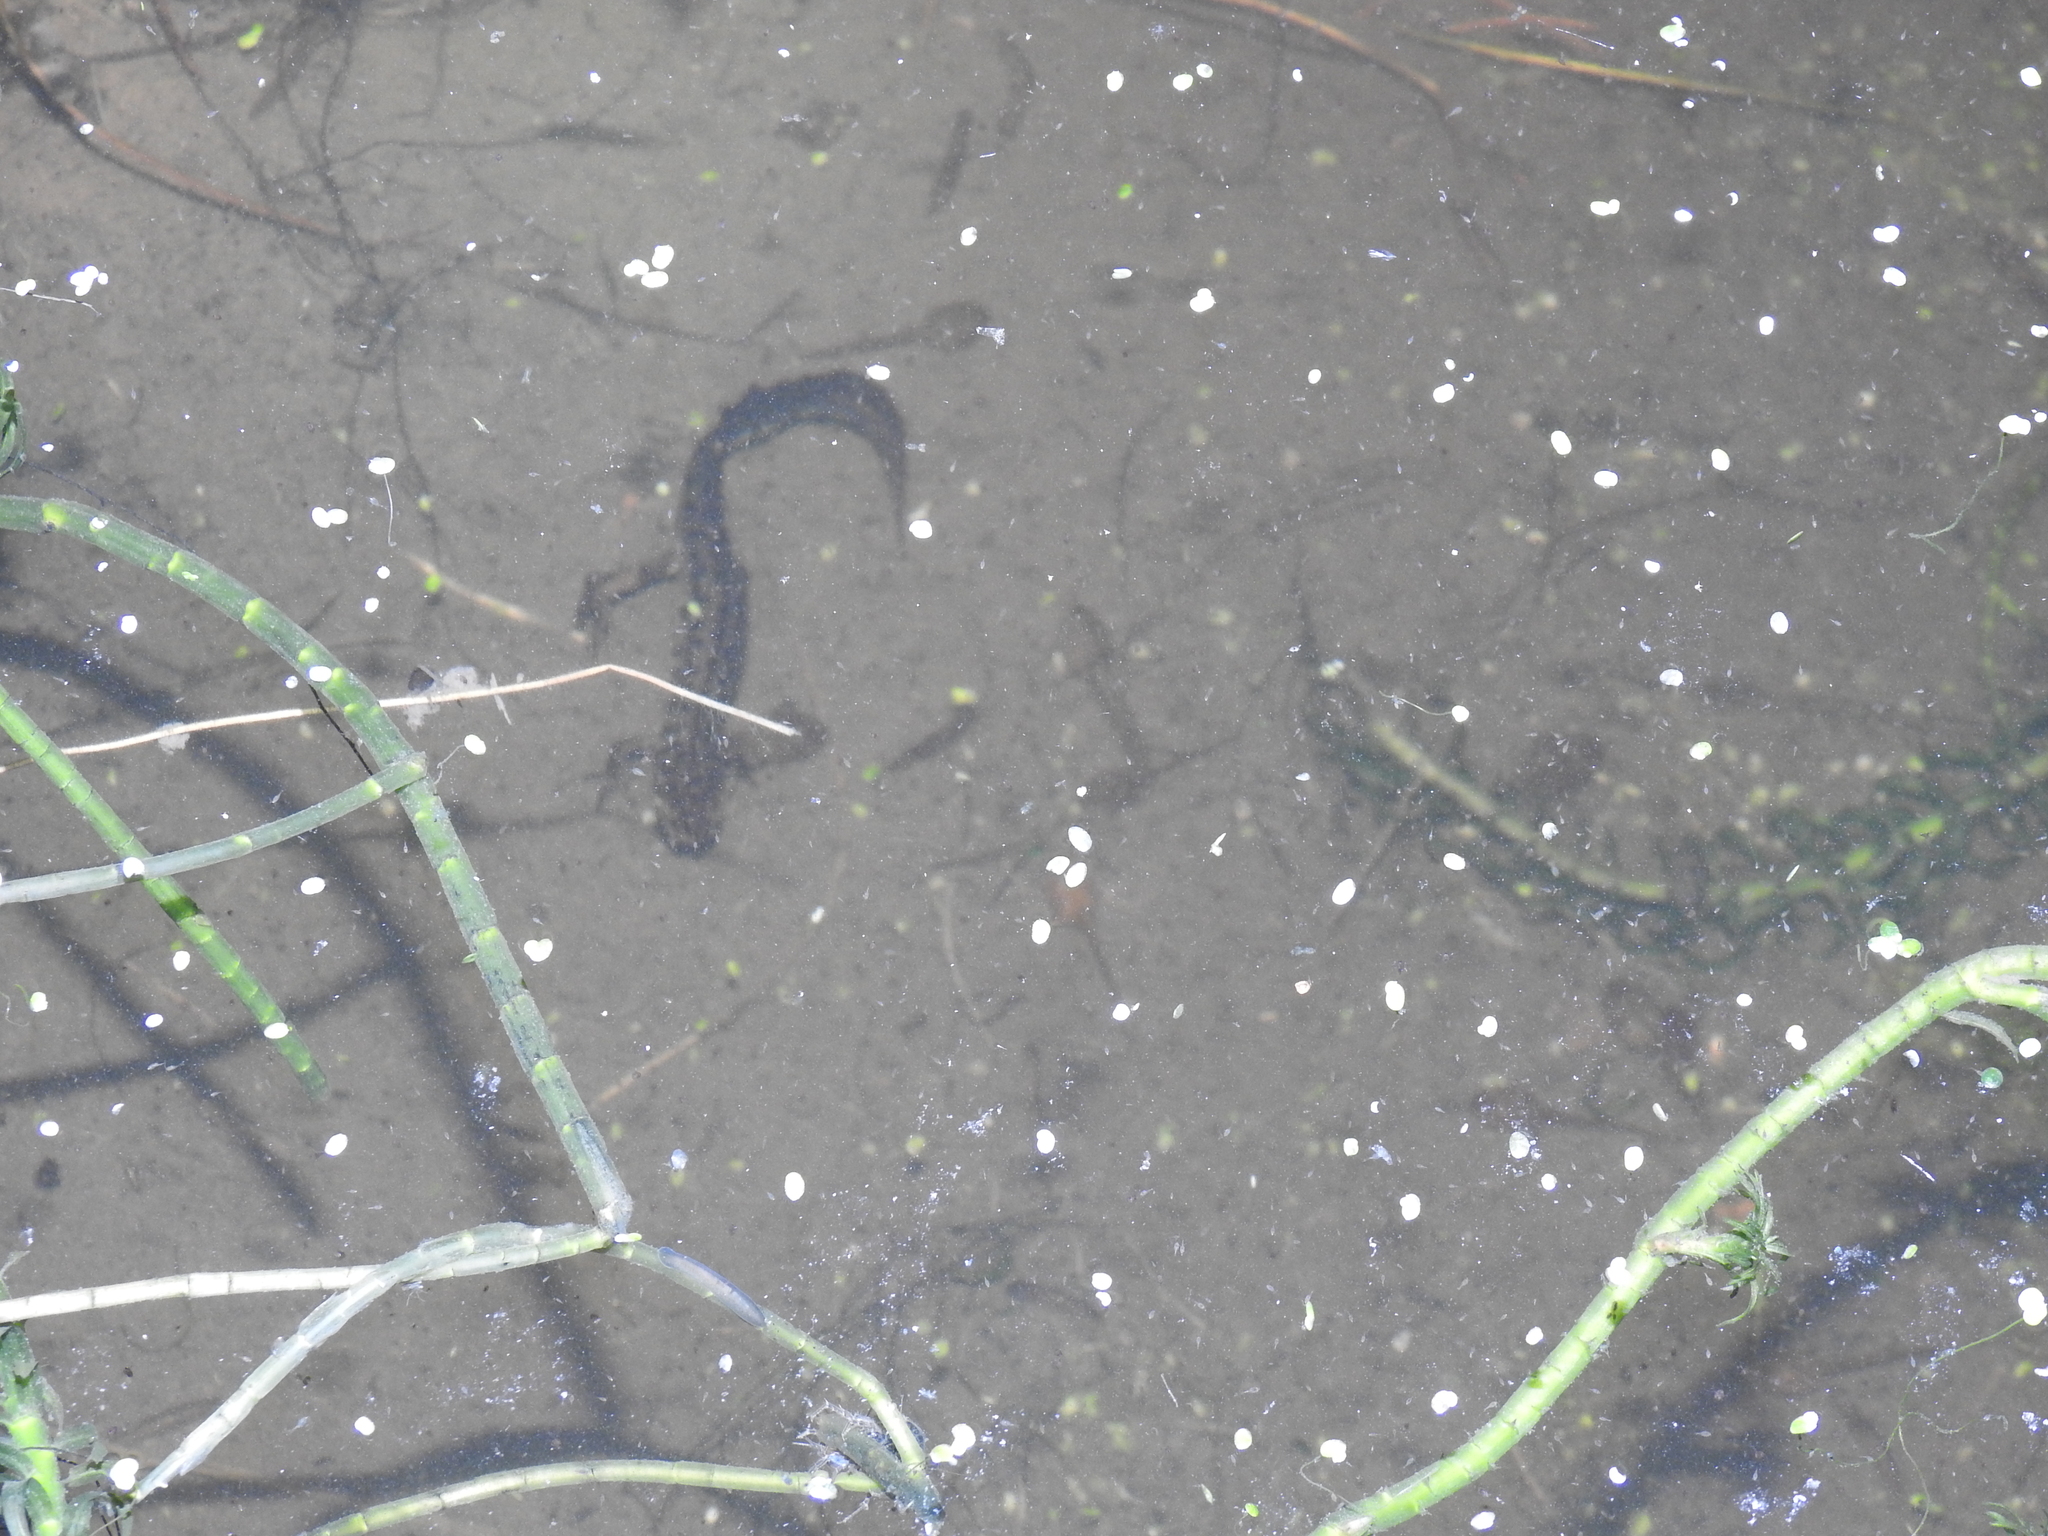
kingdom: Animalia
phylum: Chordata
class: Amphibia
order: Caudata
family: Salamandridae
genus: Lissotriton
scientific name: Lissotriton vulgaris
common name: Smooth newt
